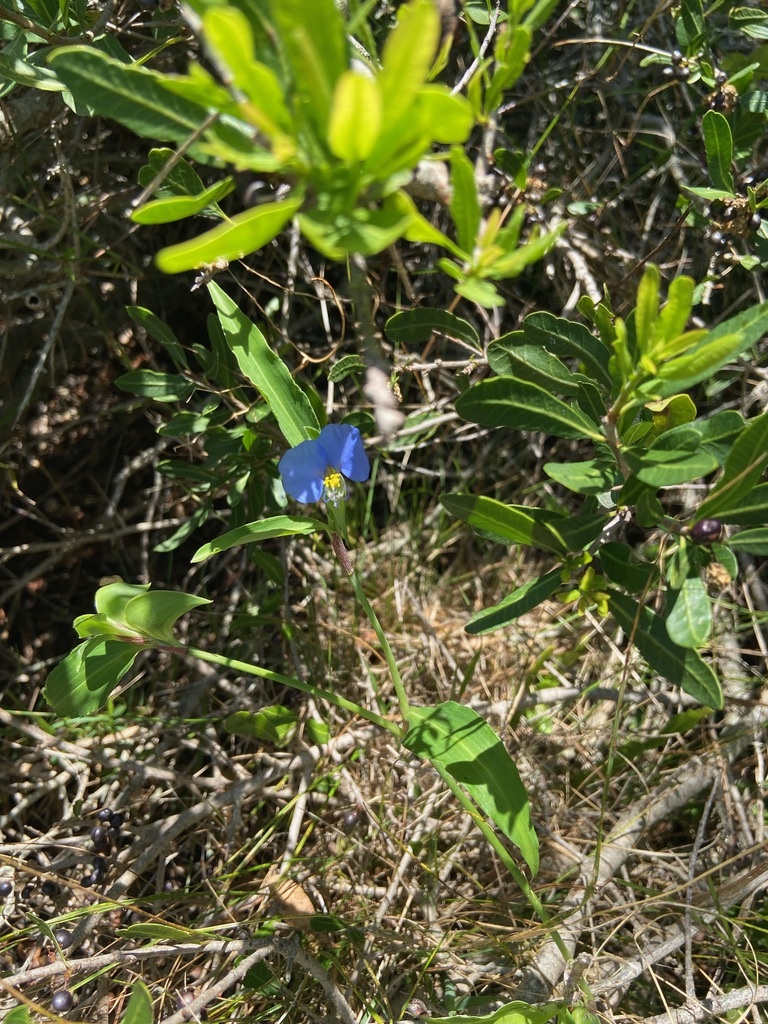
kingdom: Plantae
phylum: Tracheophyta
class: Liliopsida
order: Commelinales
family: Commelinaceae
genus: Commelina
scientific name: Commelina erecta
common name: Blousel blommetjie
